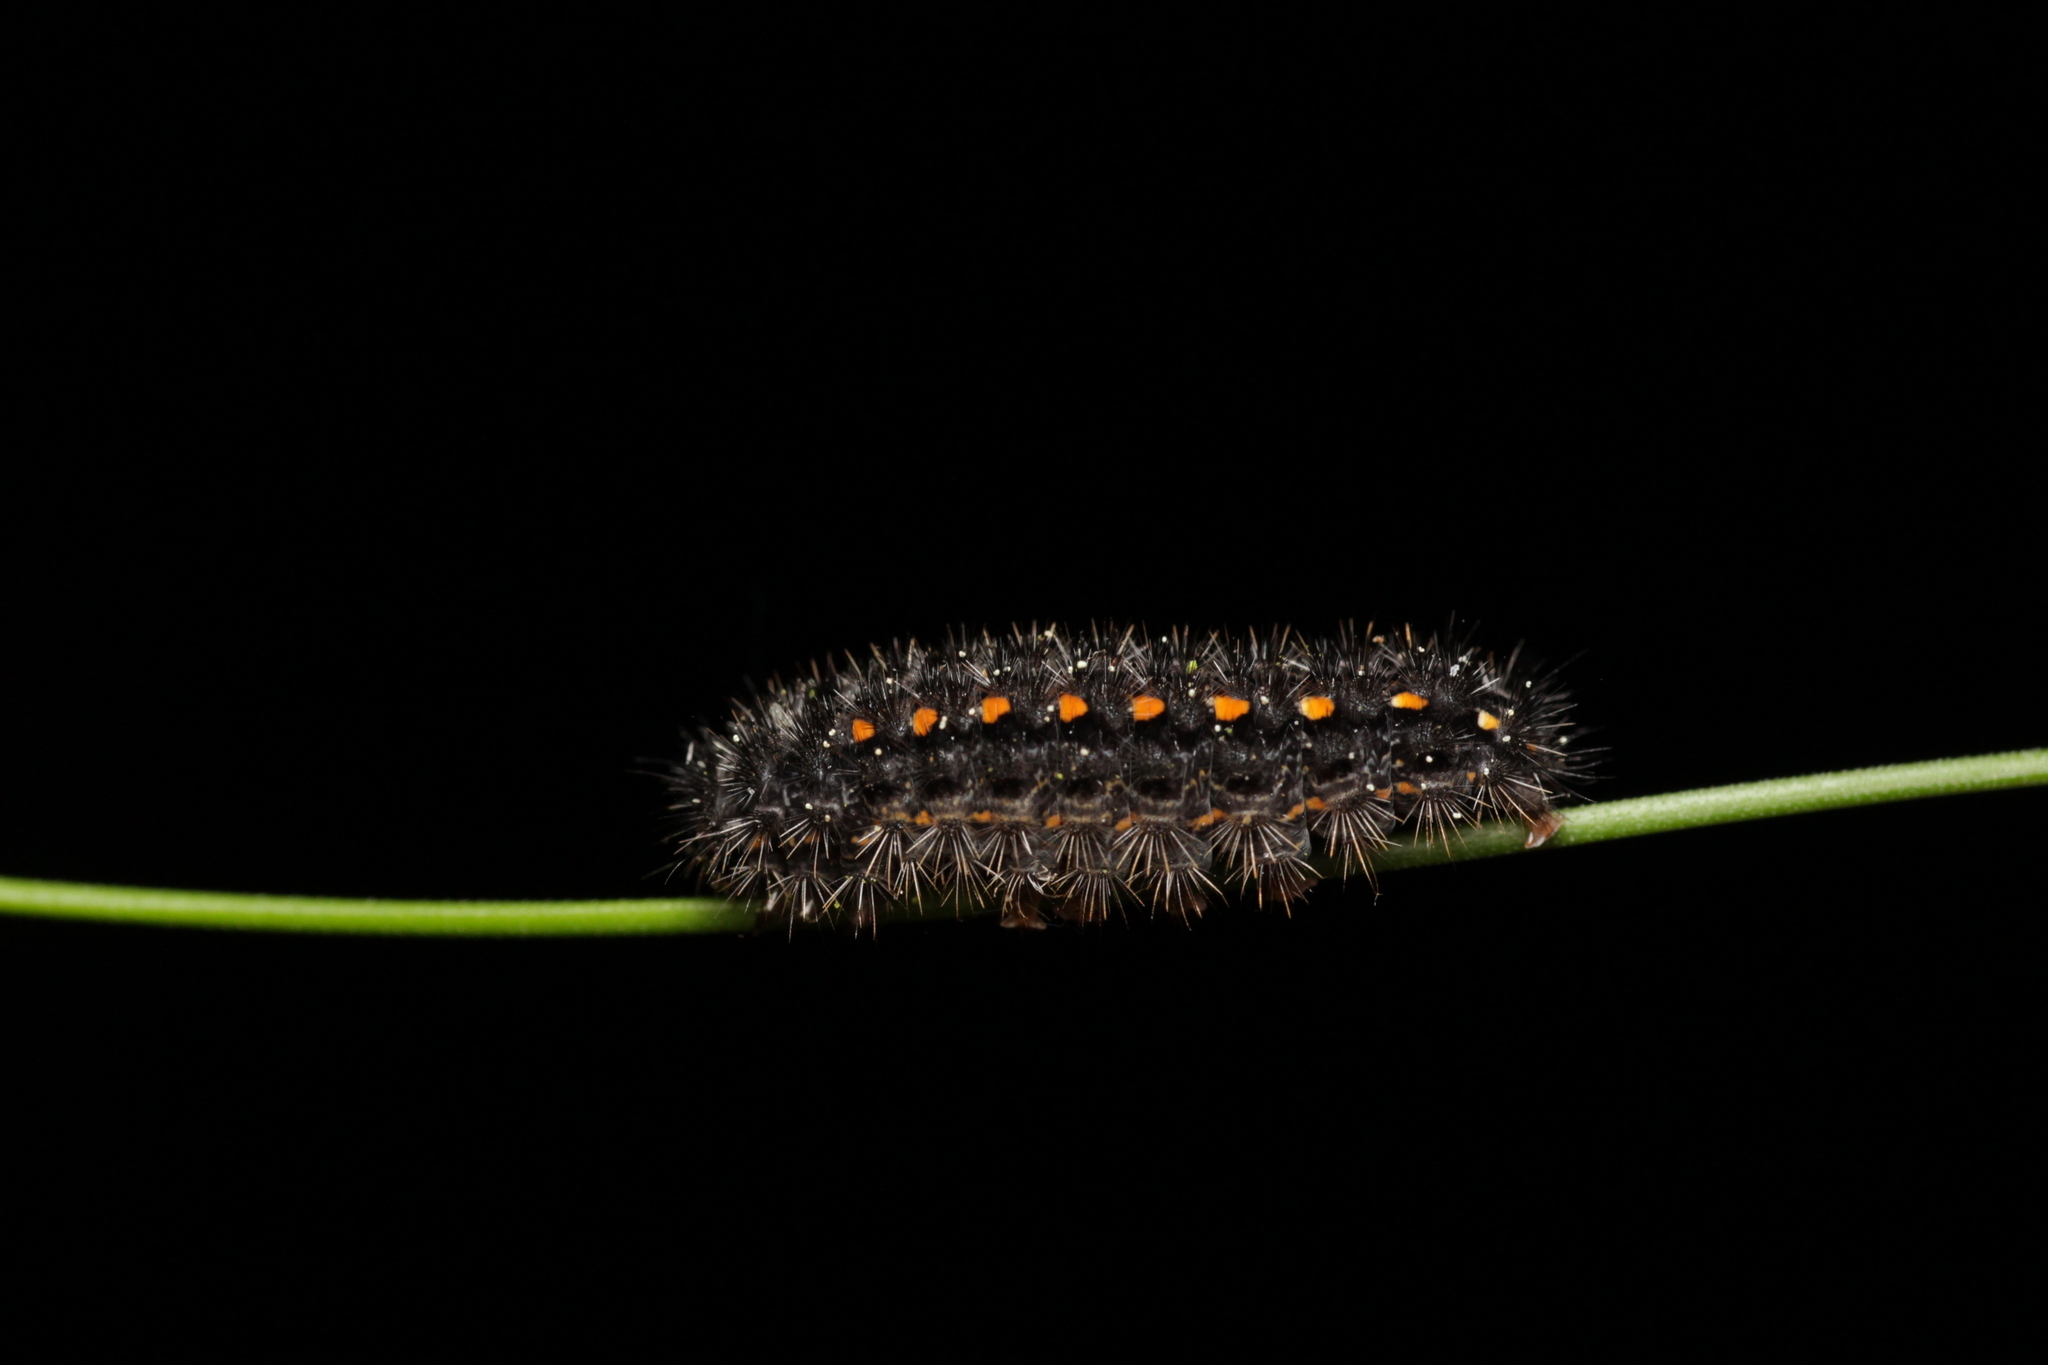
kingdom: Animalia
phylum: Arthropoda
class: Insecta
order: Lepidoptera
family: Erebidae
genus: Manulea
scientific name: Manulea complana
